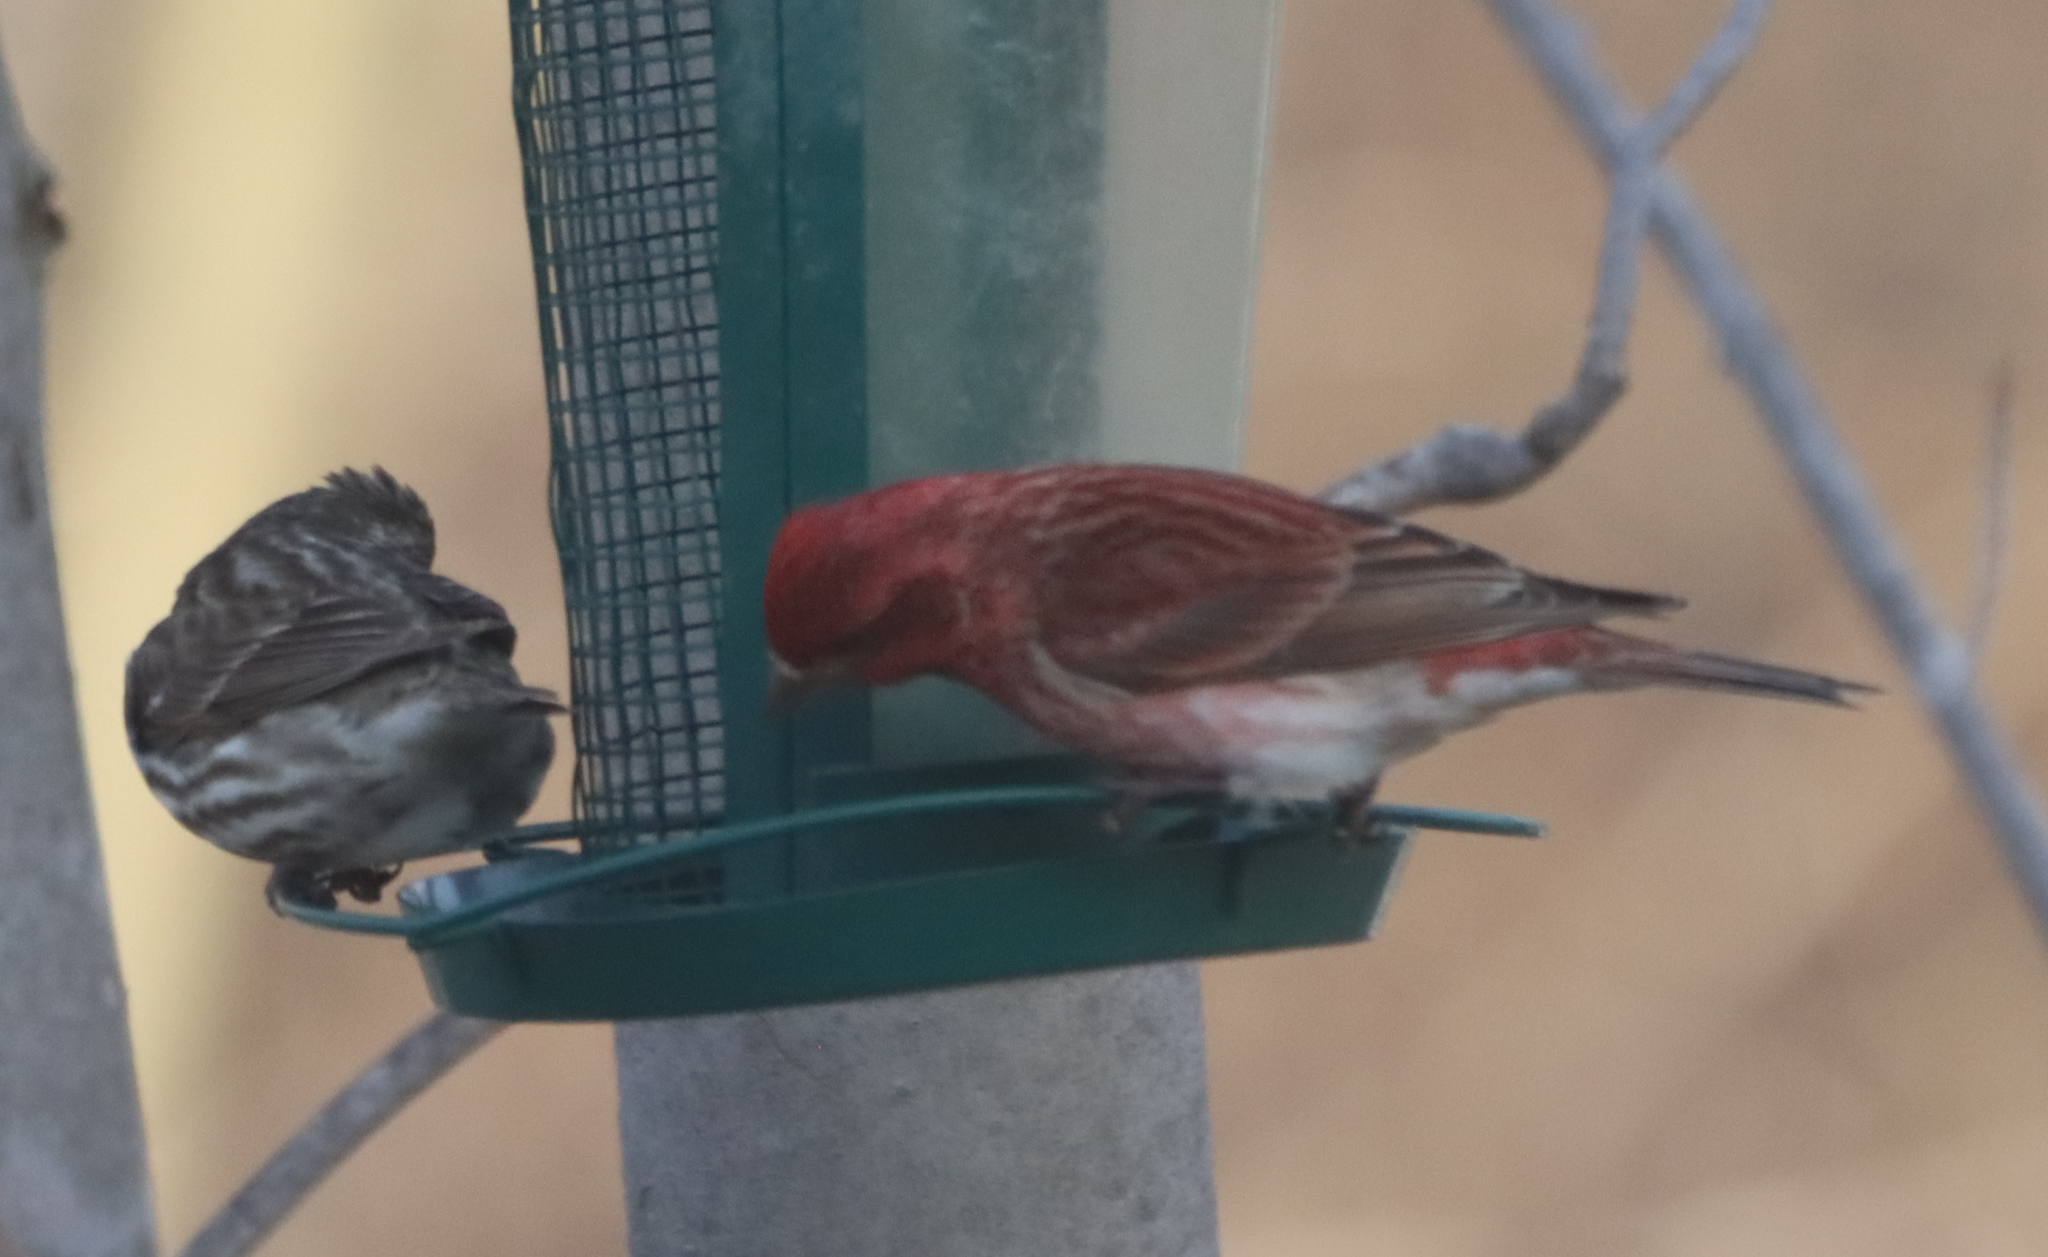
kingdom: Animalia
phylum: Chordata
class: Aves
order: Passeriformes
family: Fringillidae
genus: Haemorhous
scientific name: Haemorhous purpureus
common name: Purple finch
